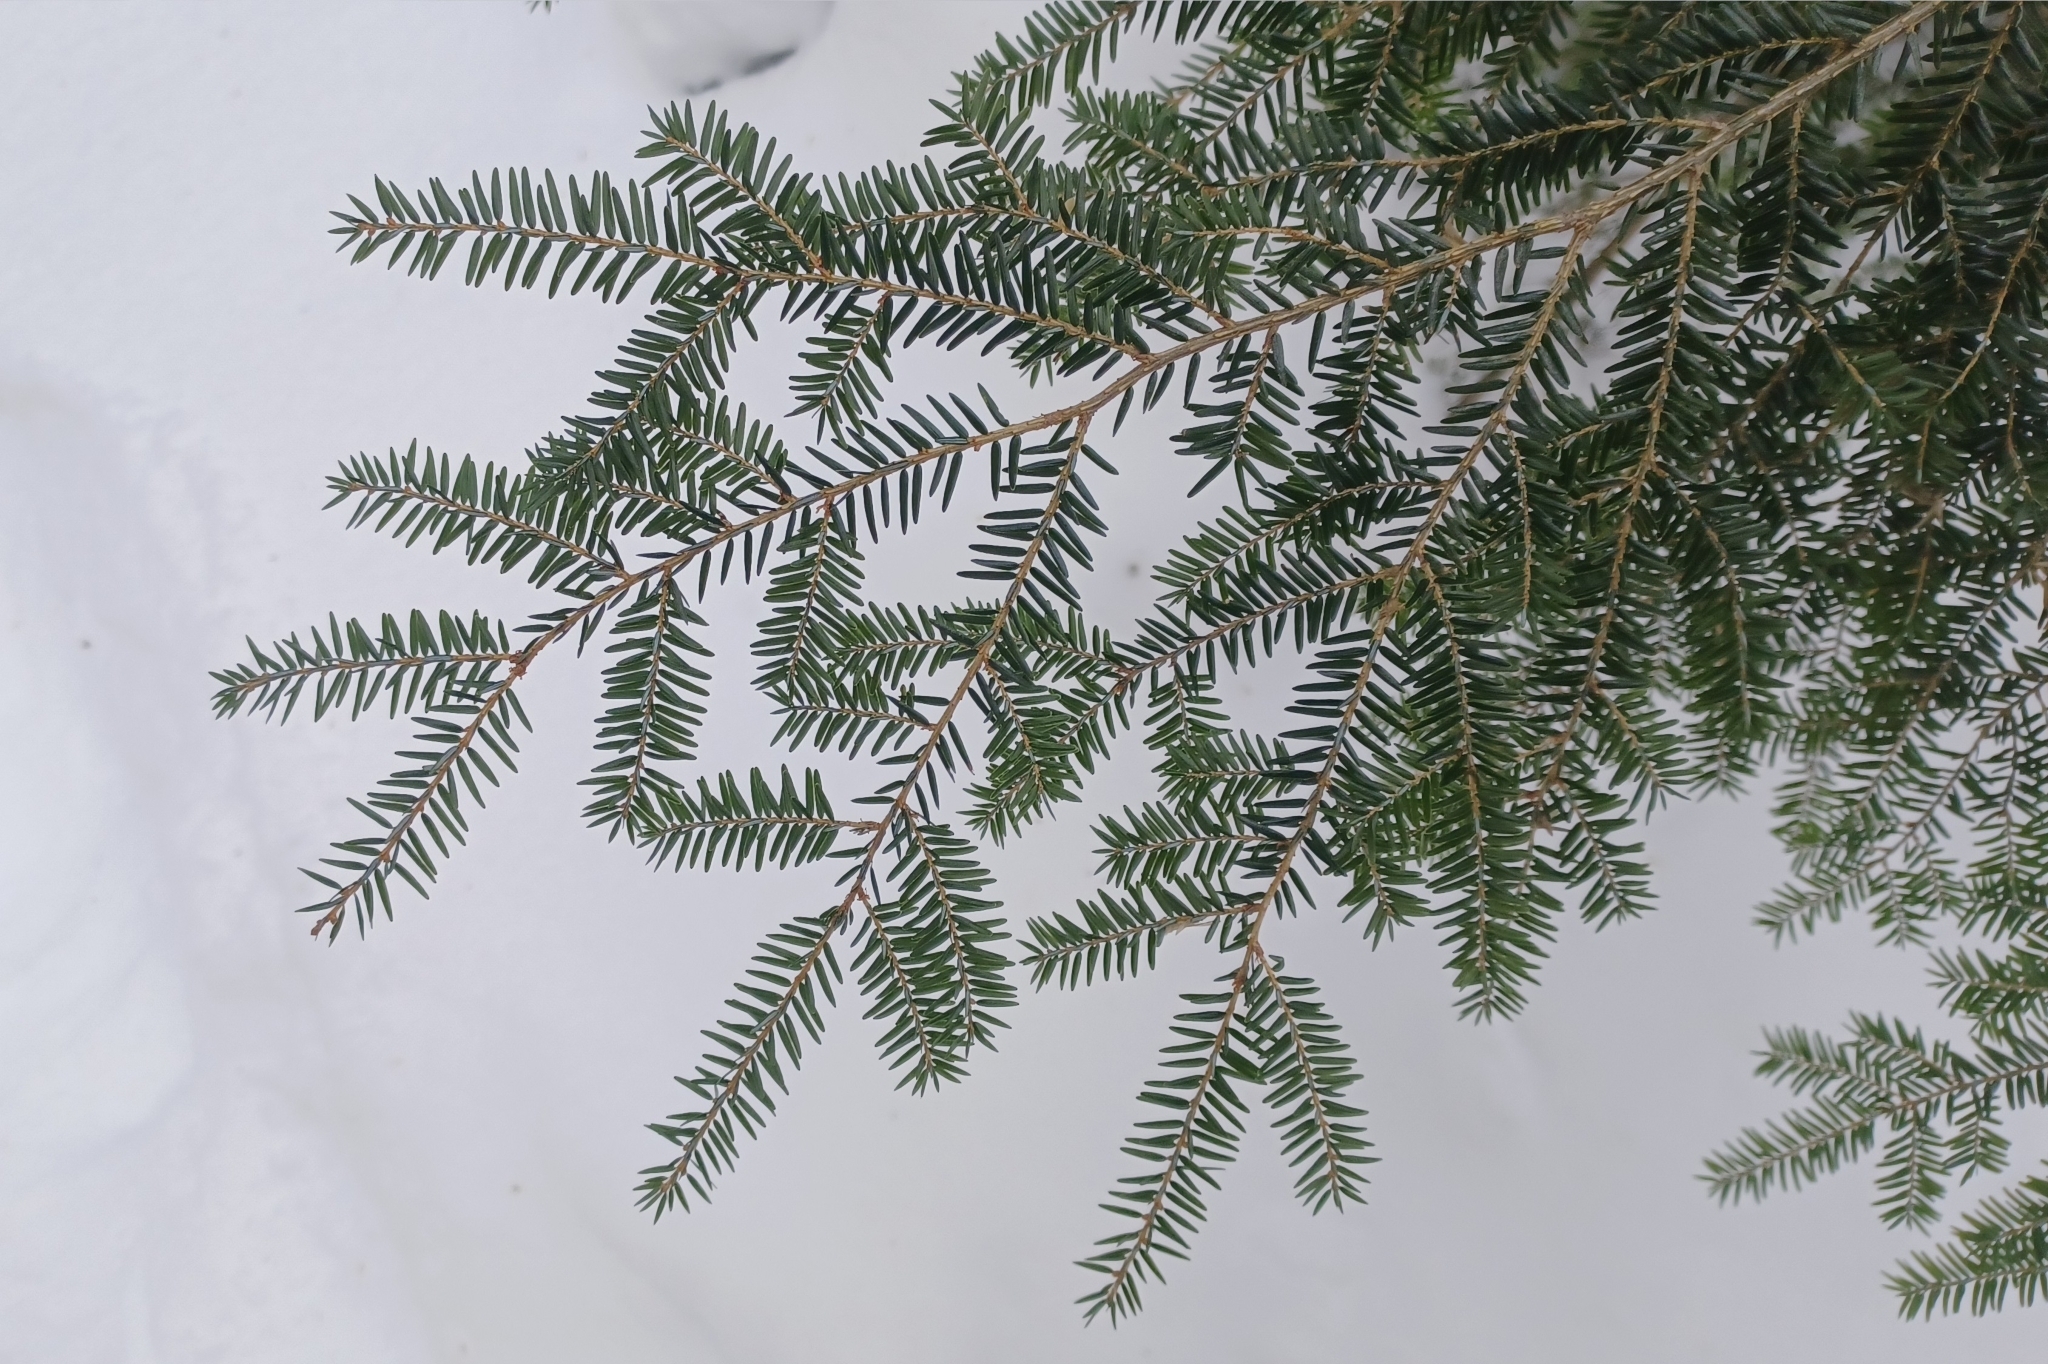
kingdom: Plantae
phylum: Tracheophyta
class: Pinopsida
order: Pinales
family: Pinaceae
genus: Tsuga
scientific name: Tsuga canadensis
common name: Eastern hemlock
